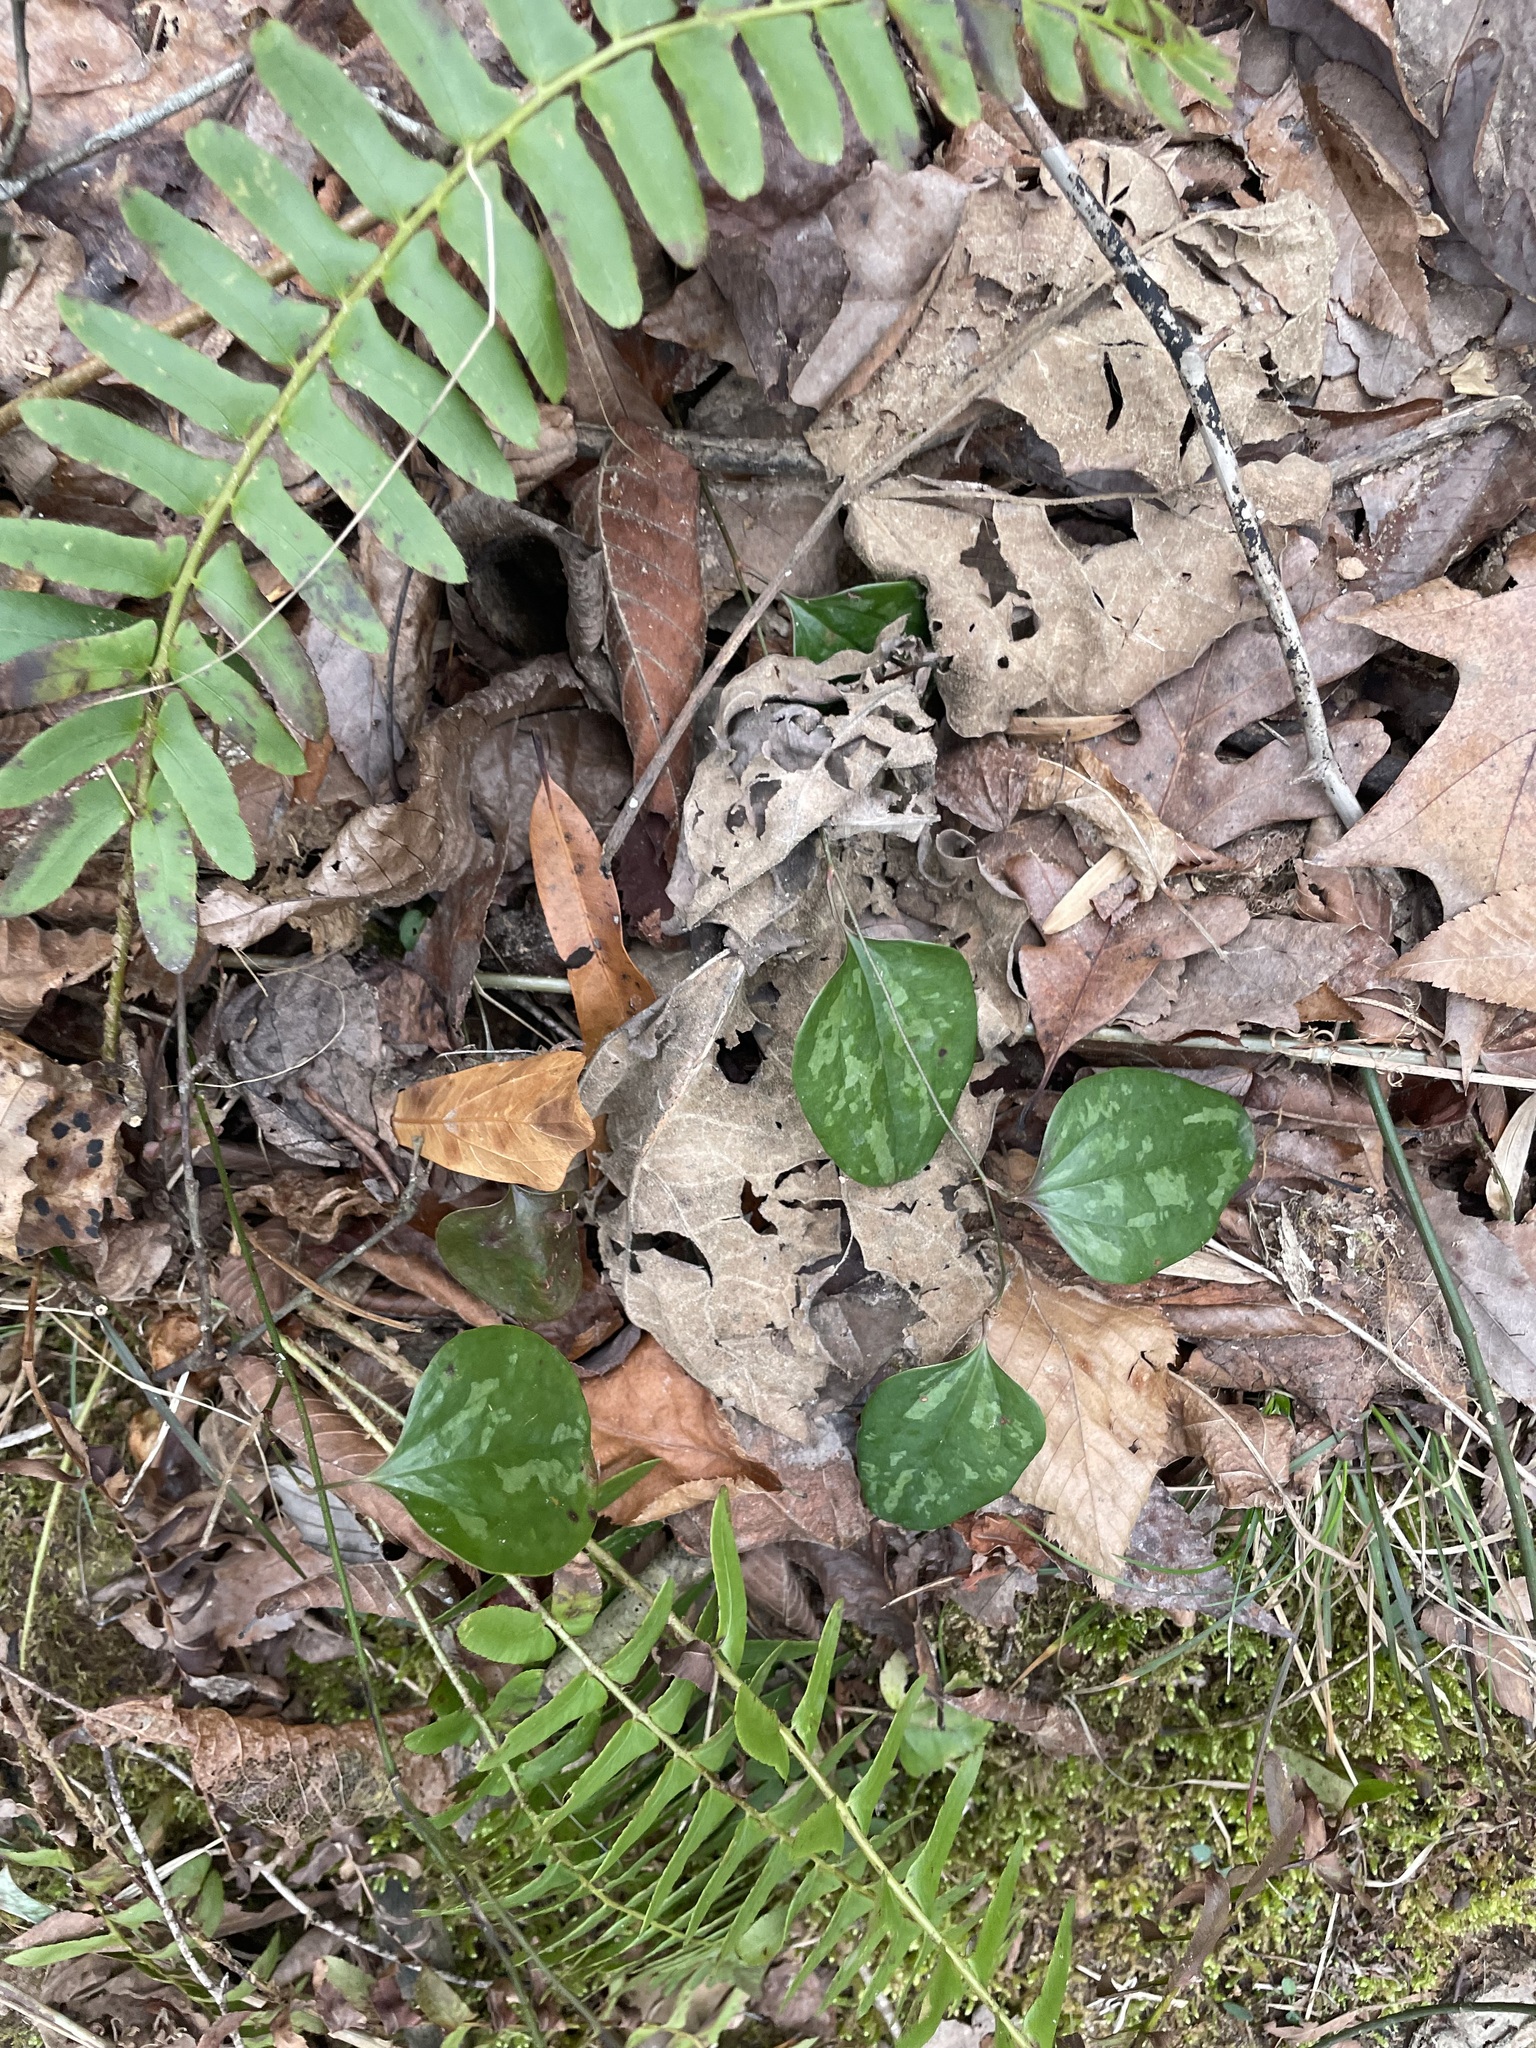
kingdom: Plantae
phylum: Tracheophyta
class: Polypodiopsida
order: Polypodiales
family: Dryopteridaceae
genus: Polystichum
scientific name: Polystichum acrostichoides
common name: Christmas fern
